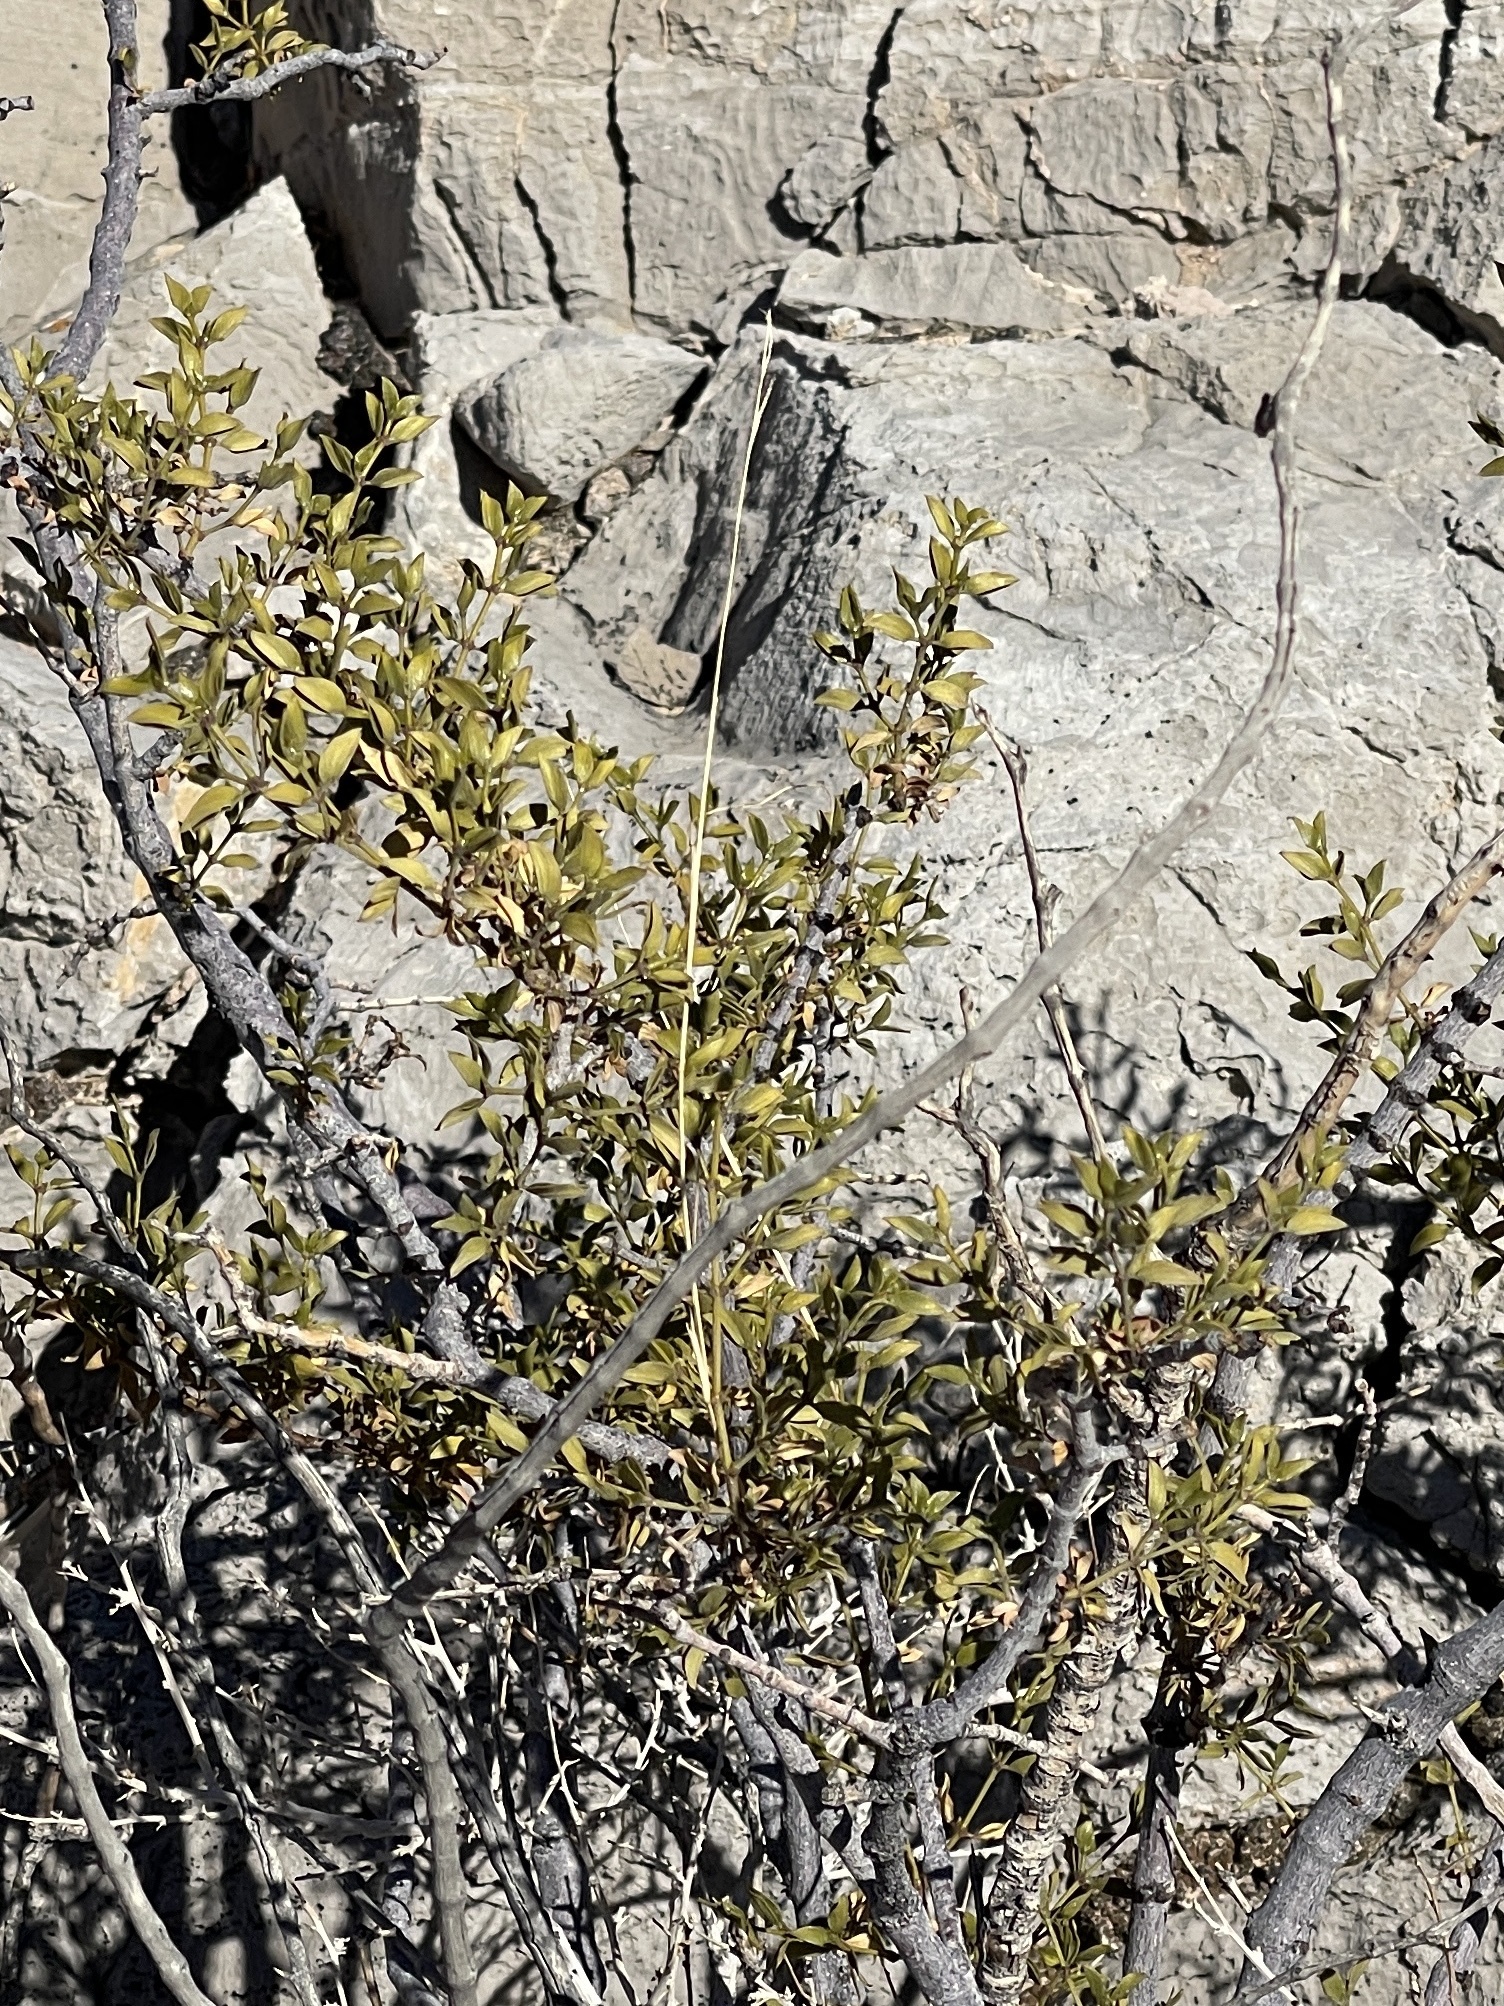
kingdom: Plantae
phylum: Tracheophyta
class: Magnoliopsida
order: Zygophyllales
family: Zygophyllaceae
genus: Larrea
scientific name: Larrea tridentata
